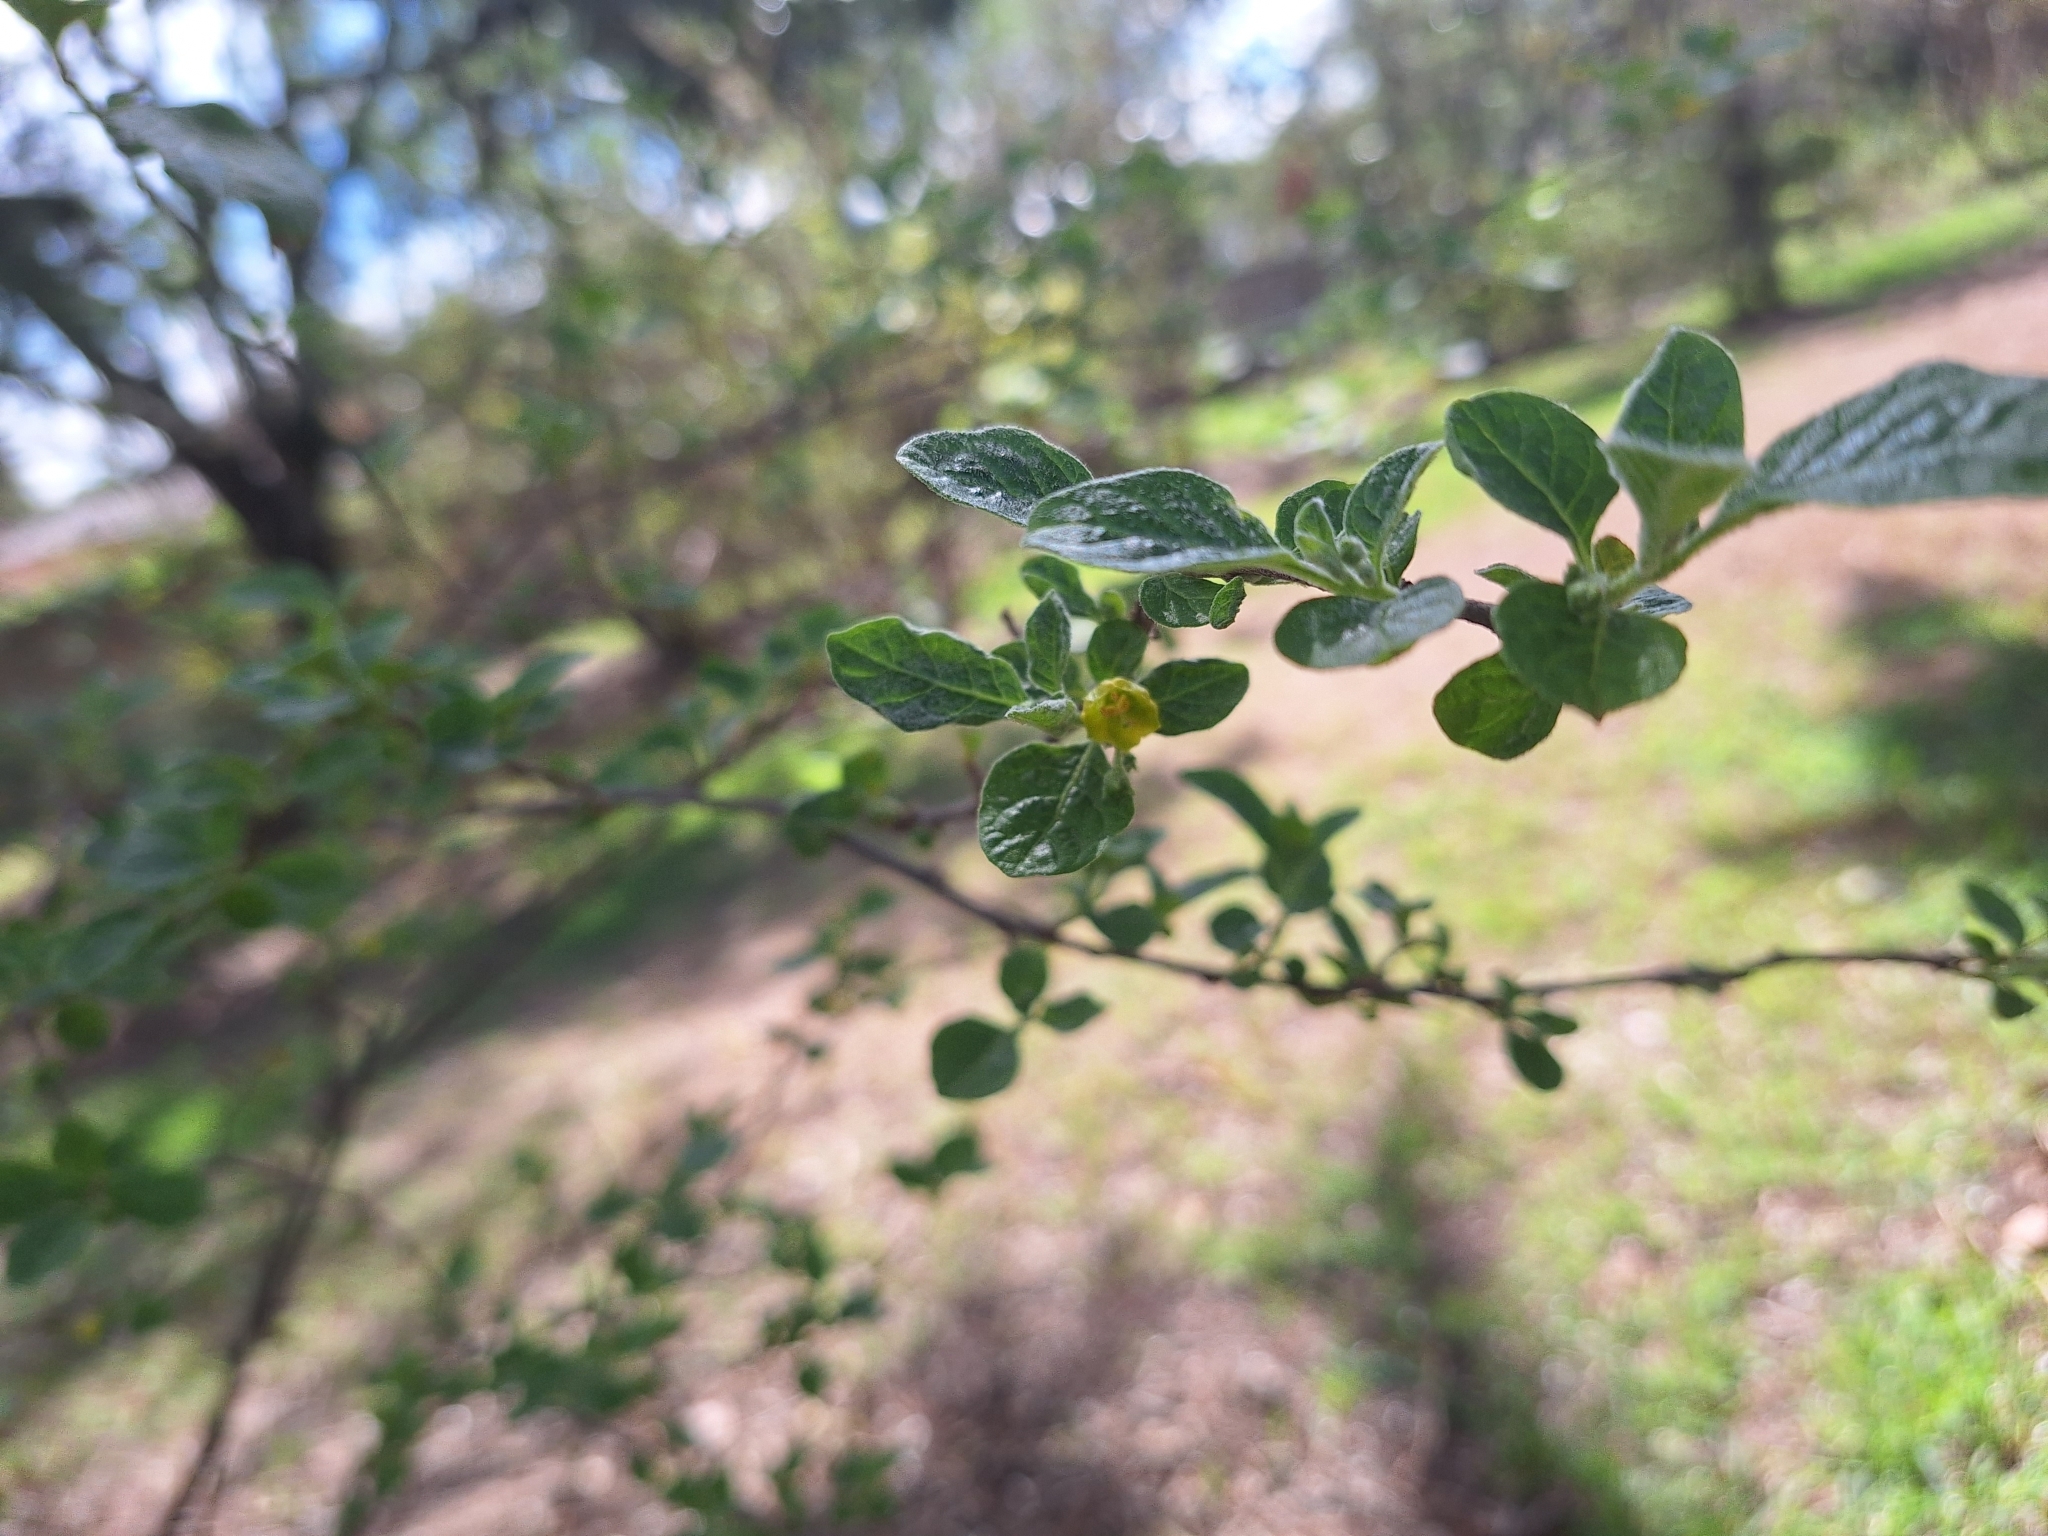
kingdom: Plantae
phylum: Tracheophyta
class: Magnoliopsida
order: Solanales
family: Solanaceae
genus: Capsicum
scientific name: Capsicum rhomboideum
